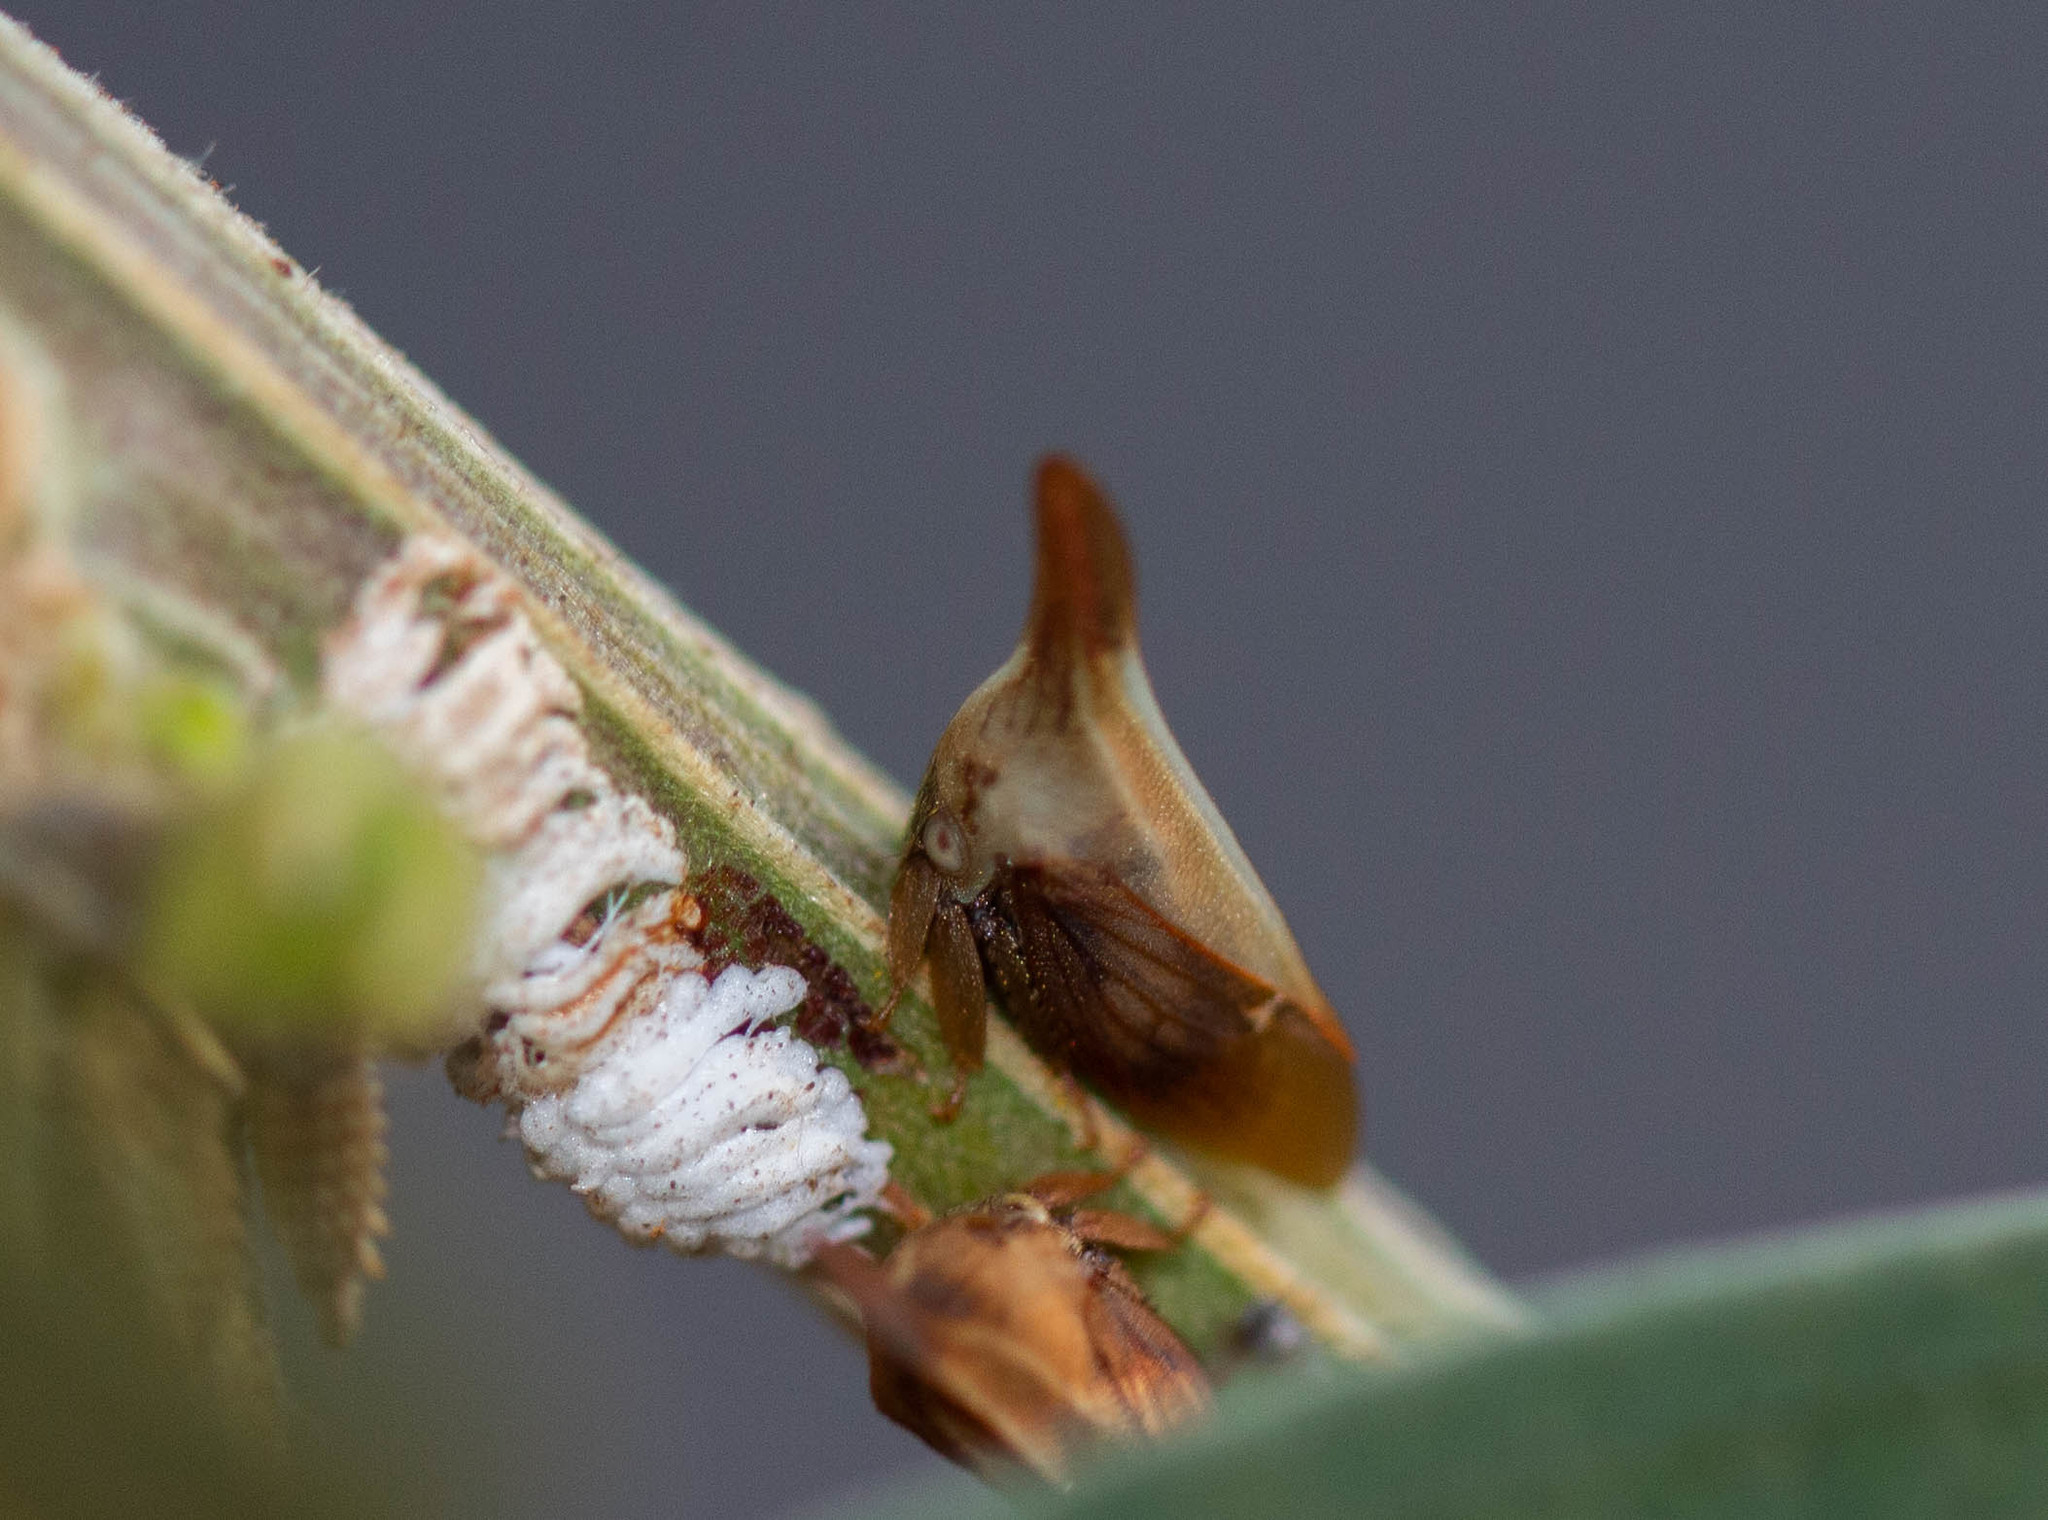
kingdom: Animalia
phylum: Arthropoda
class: Insecta
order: Hemiptera
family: Membracidae
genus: Enchenopa
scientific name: Enchenopa gracilis
